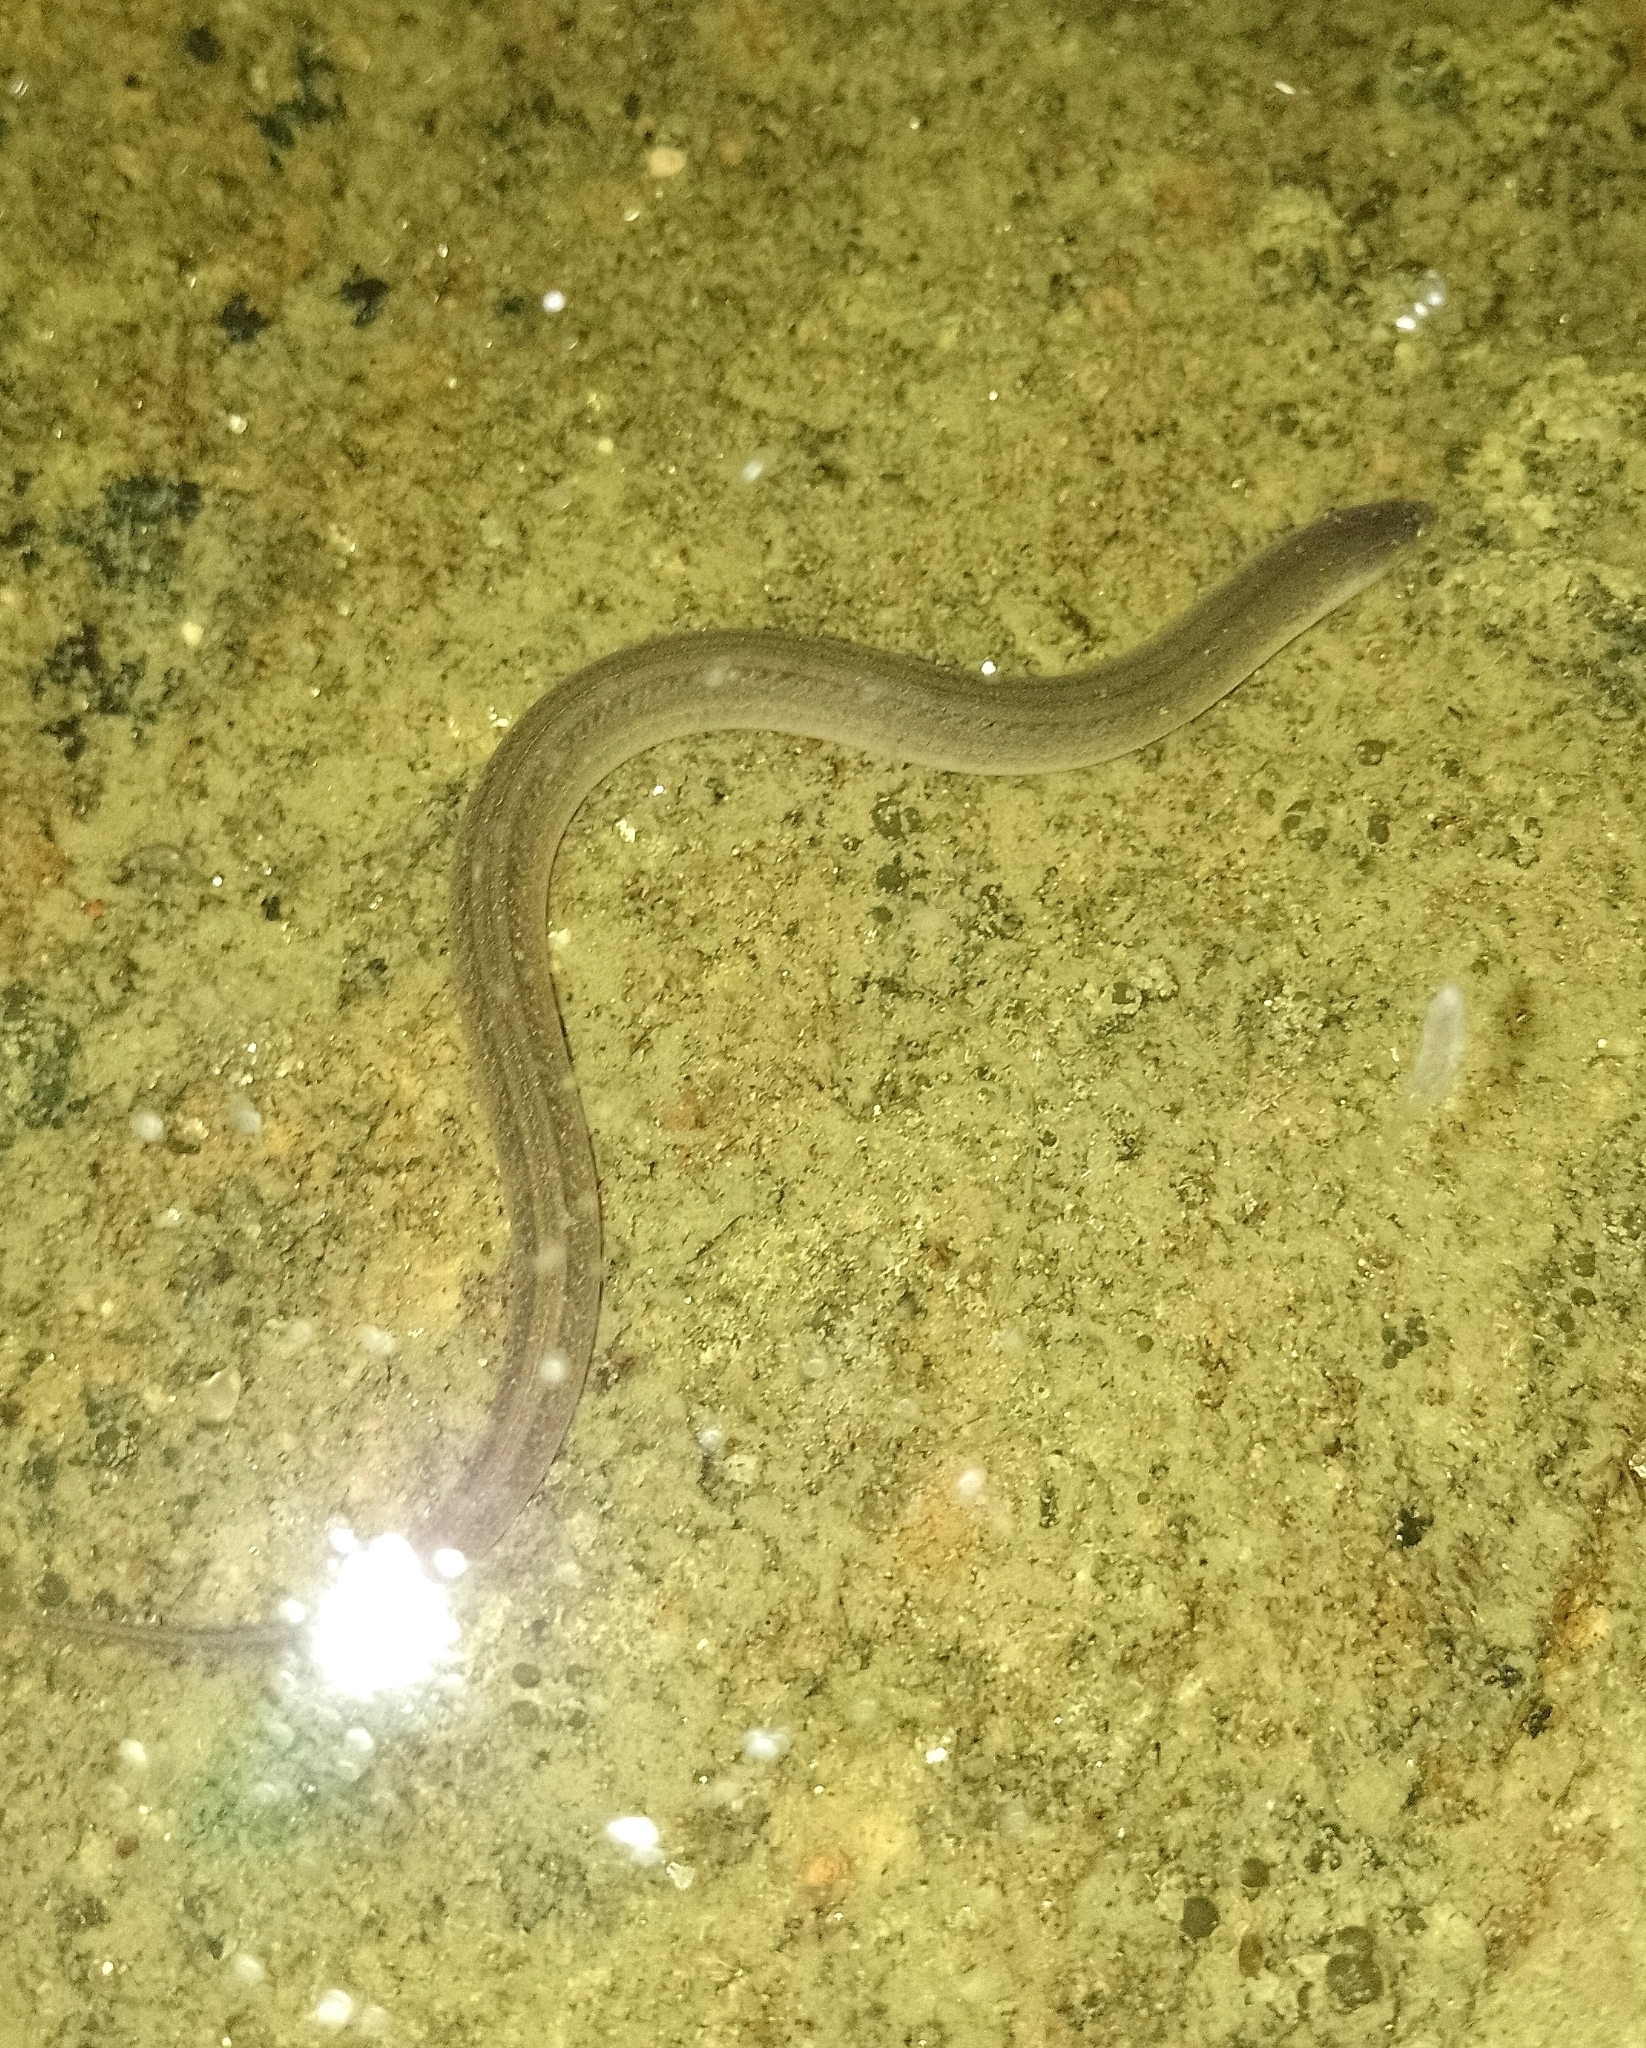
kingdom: Animalia
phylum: Chordata
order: Synbranchiformes
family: Synbranchidae
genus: Synbranchus
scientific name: Synbranchus marmoratus
